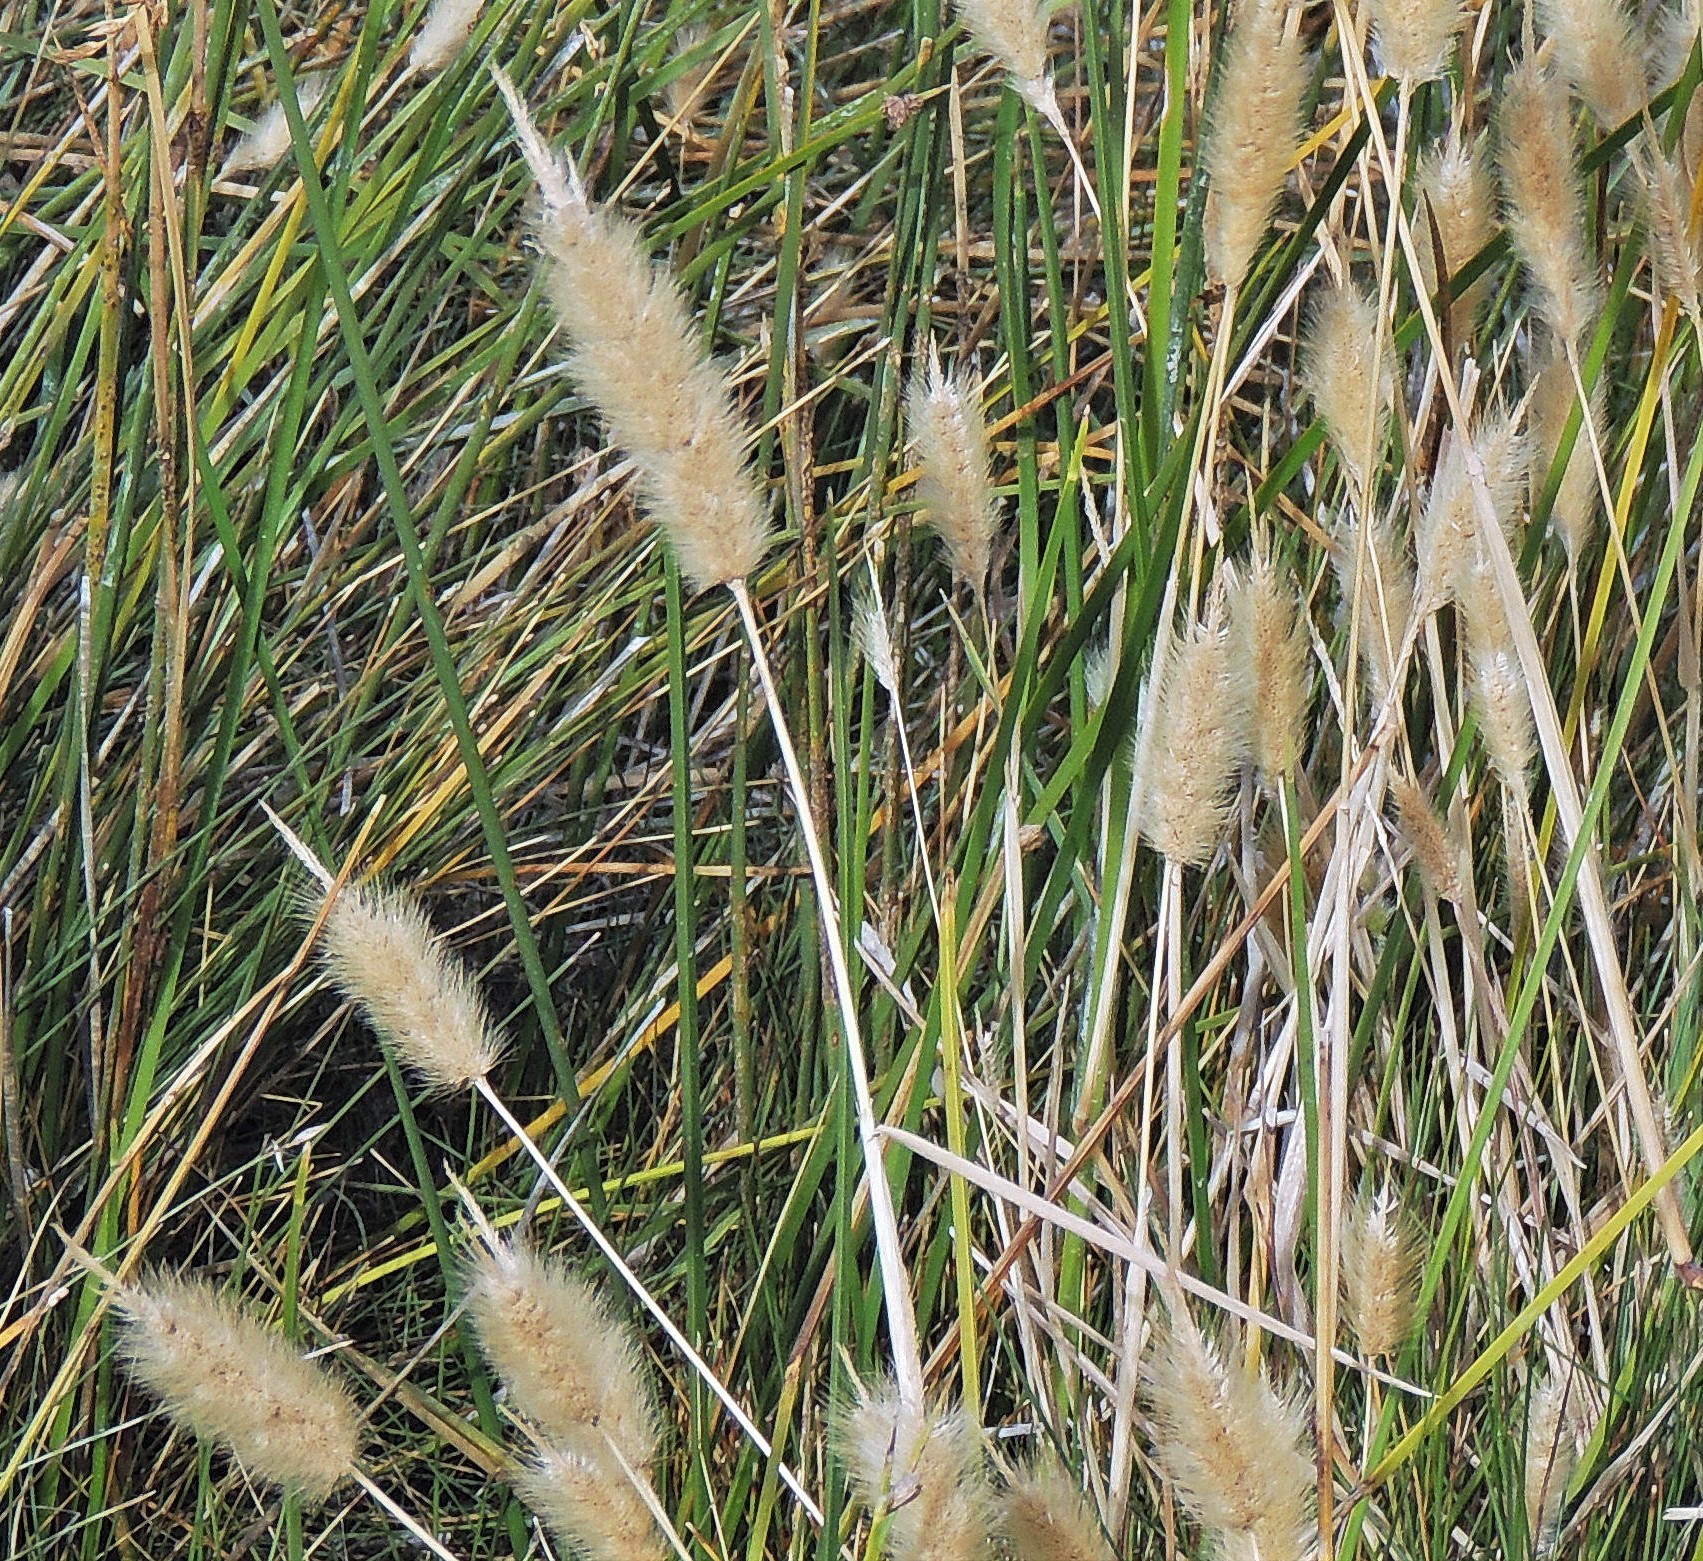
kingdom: Plantae
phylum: Tracheophyta
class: Liliopsida
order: Poales
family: Poaceae
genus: Polypogon
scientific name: Polypogon monspeliensis
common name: Annual rabbitsfoot grass
